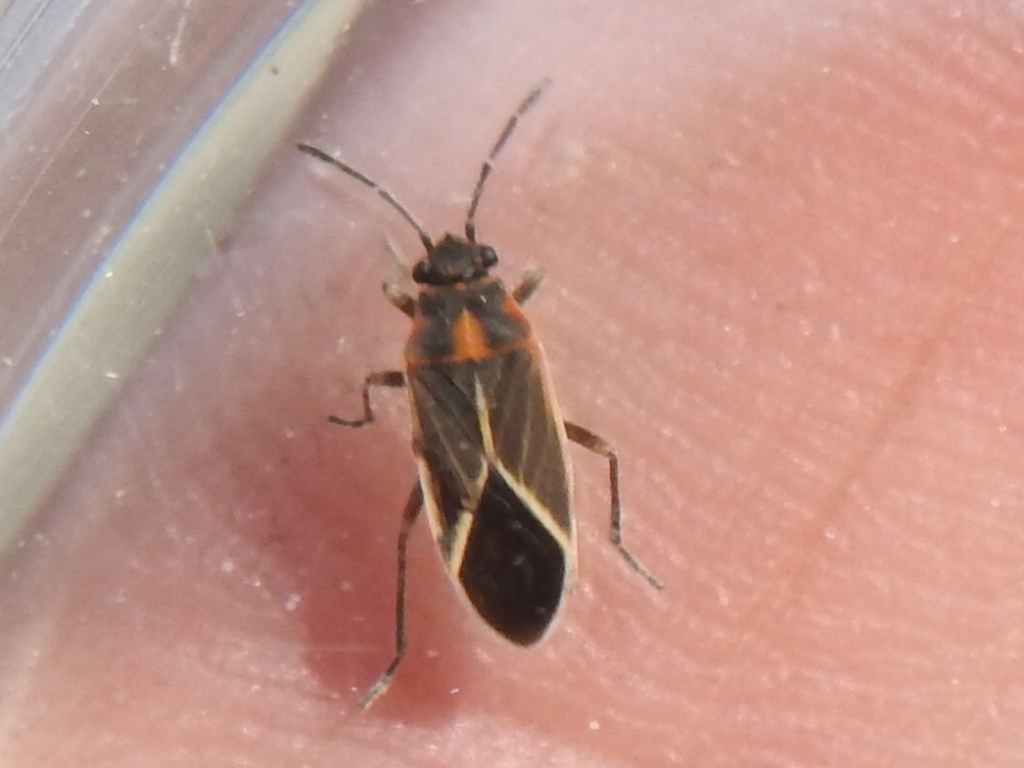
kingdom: Animalia
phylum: Arthropoda
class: Insecta
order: Hemiptera
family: Lygaeidae
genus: Ochrimnus
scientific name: Ochrimnus carnosulus
